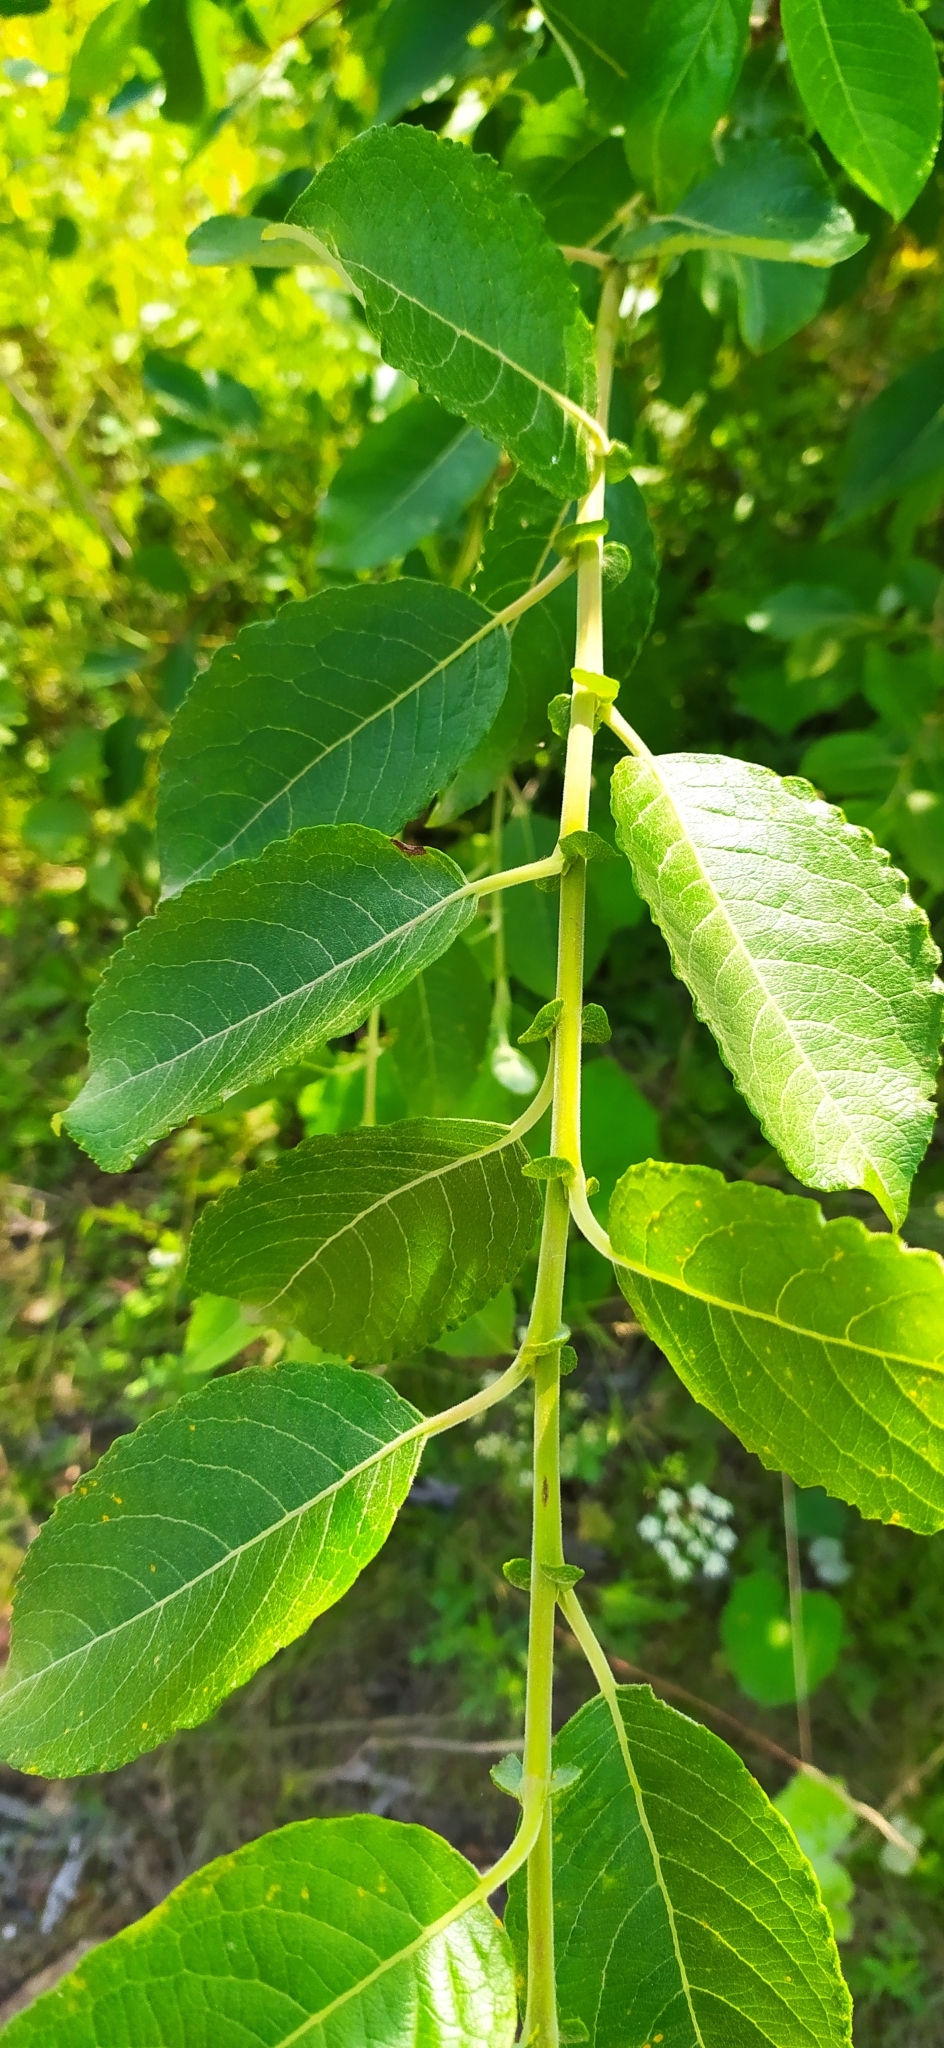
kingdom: Plantae
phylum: Tracheophyta
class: Magnoliopsida
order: Malpighiales
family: Salicaceae
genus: Salix
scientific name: Salix caprea
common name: Goat willow
